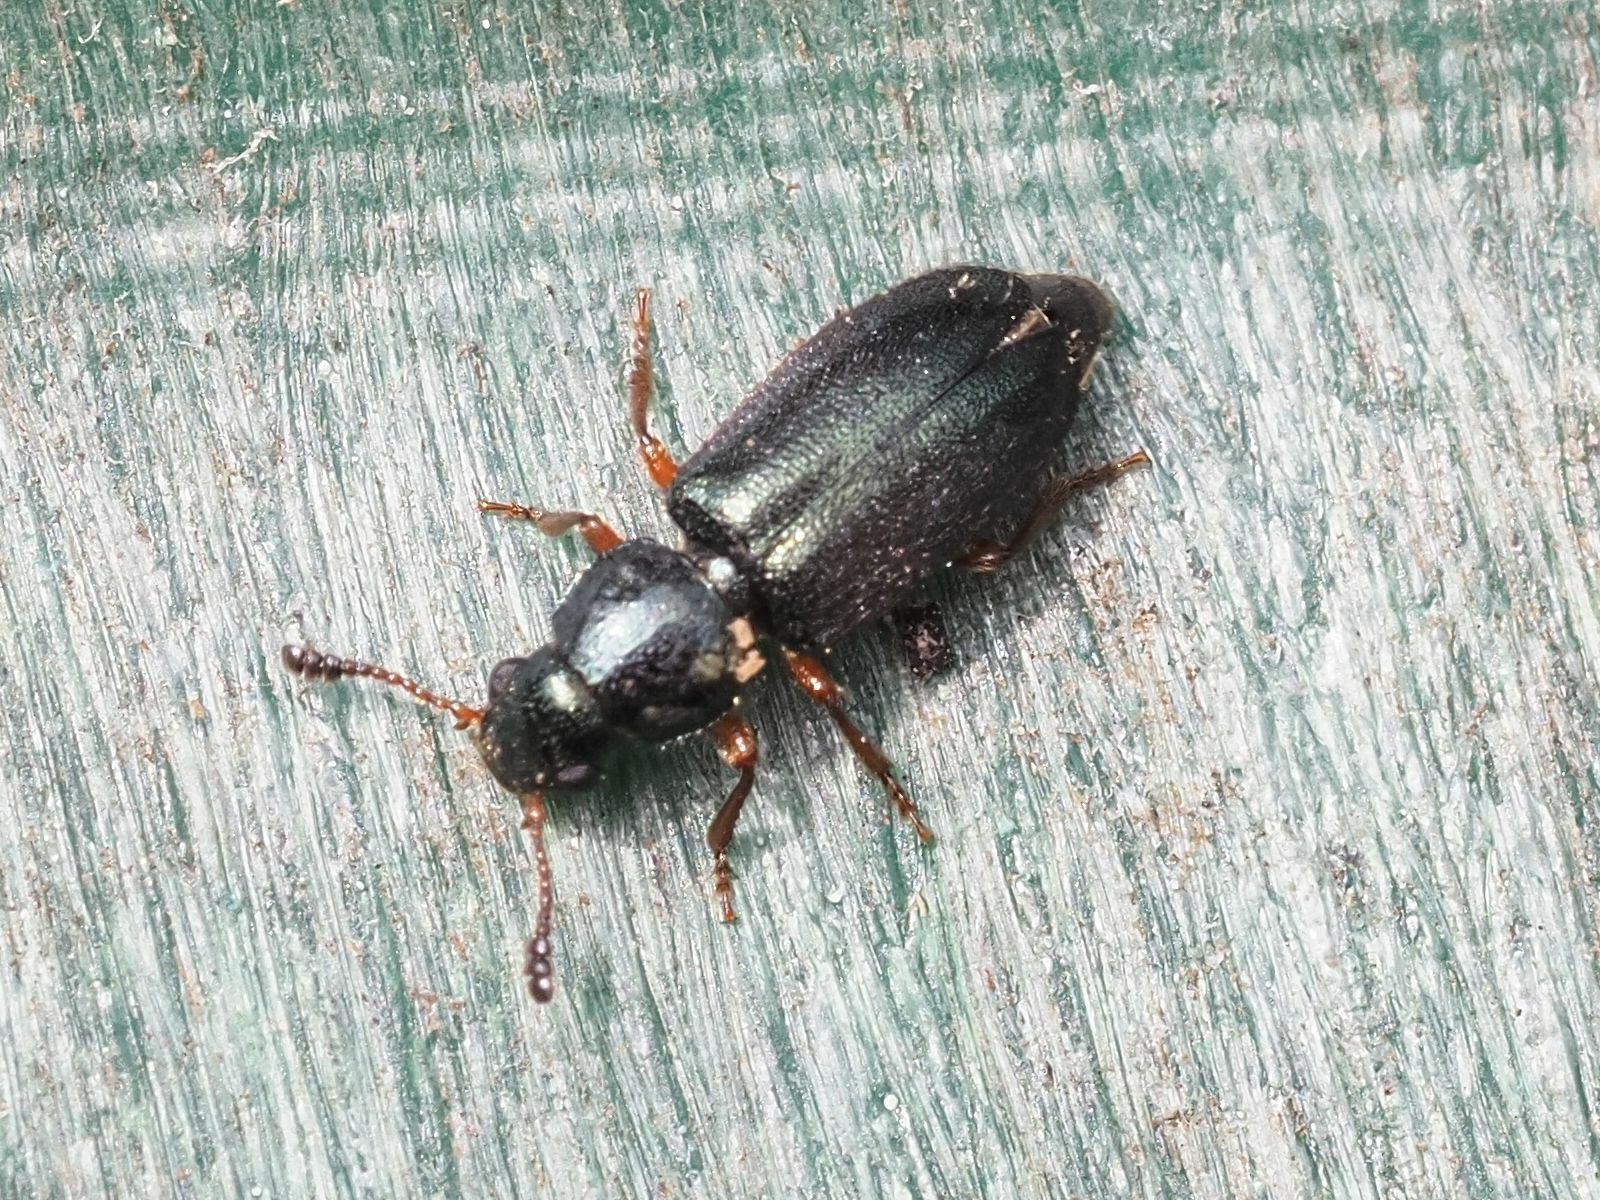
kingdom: Animalia
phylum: Arthropoda
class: Insecta
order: Coleoptera
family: Cleridae
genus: Necrobia
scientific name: Necrobia rufipes
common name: Red-legged ham beetle
